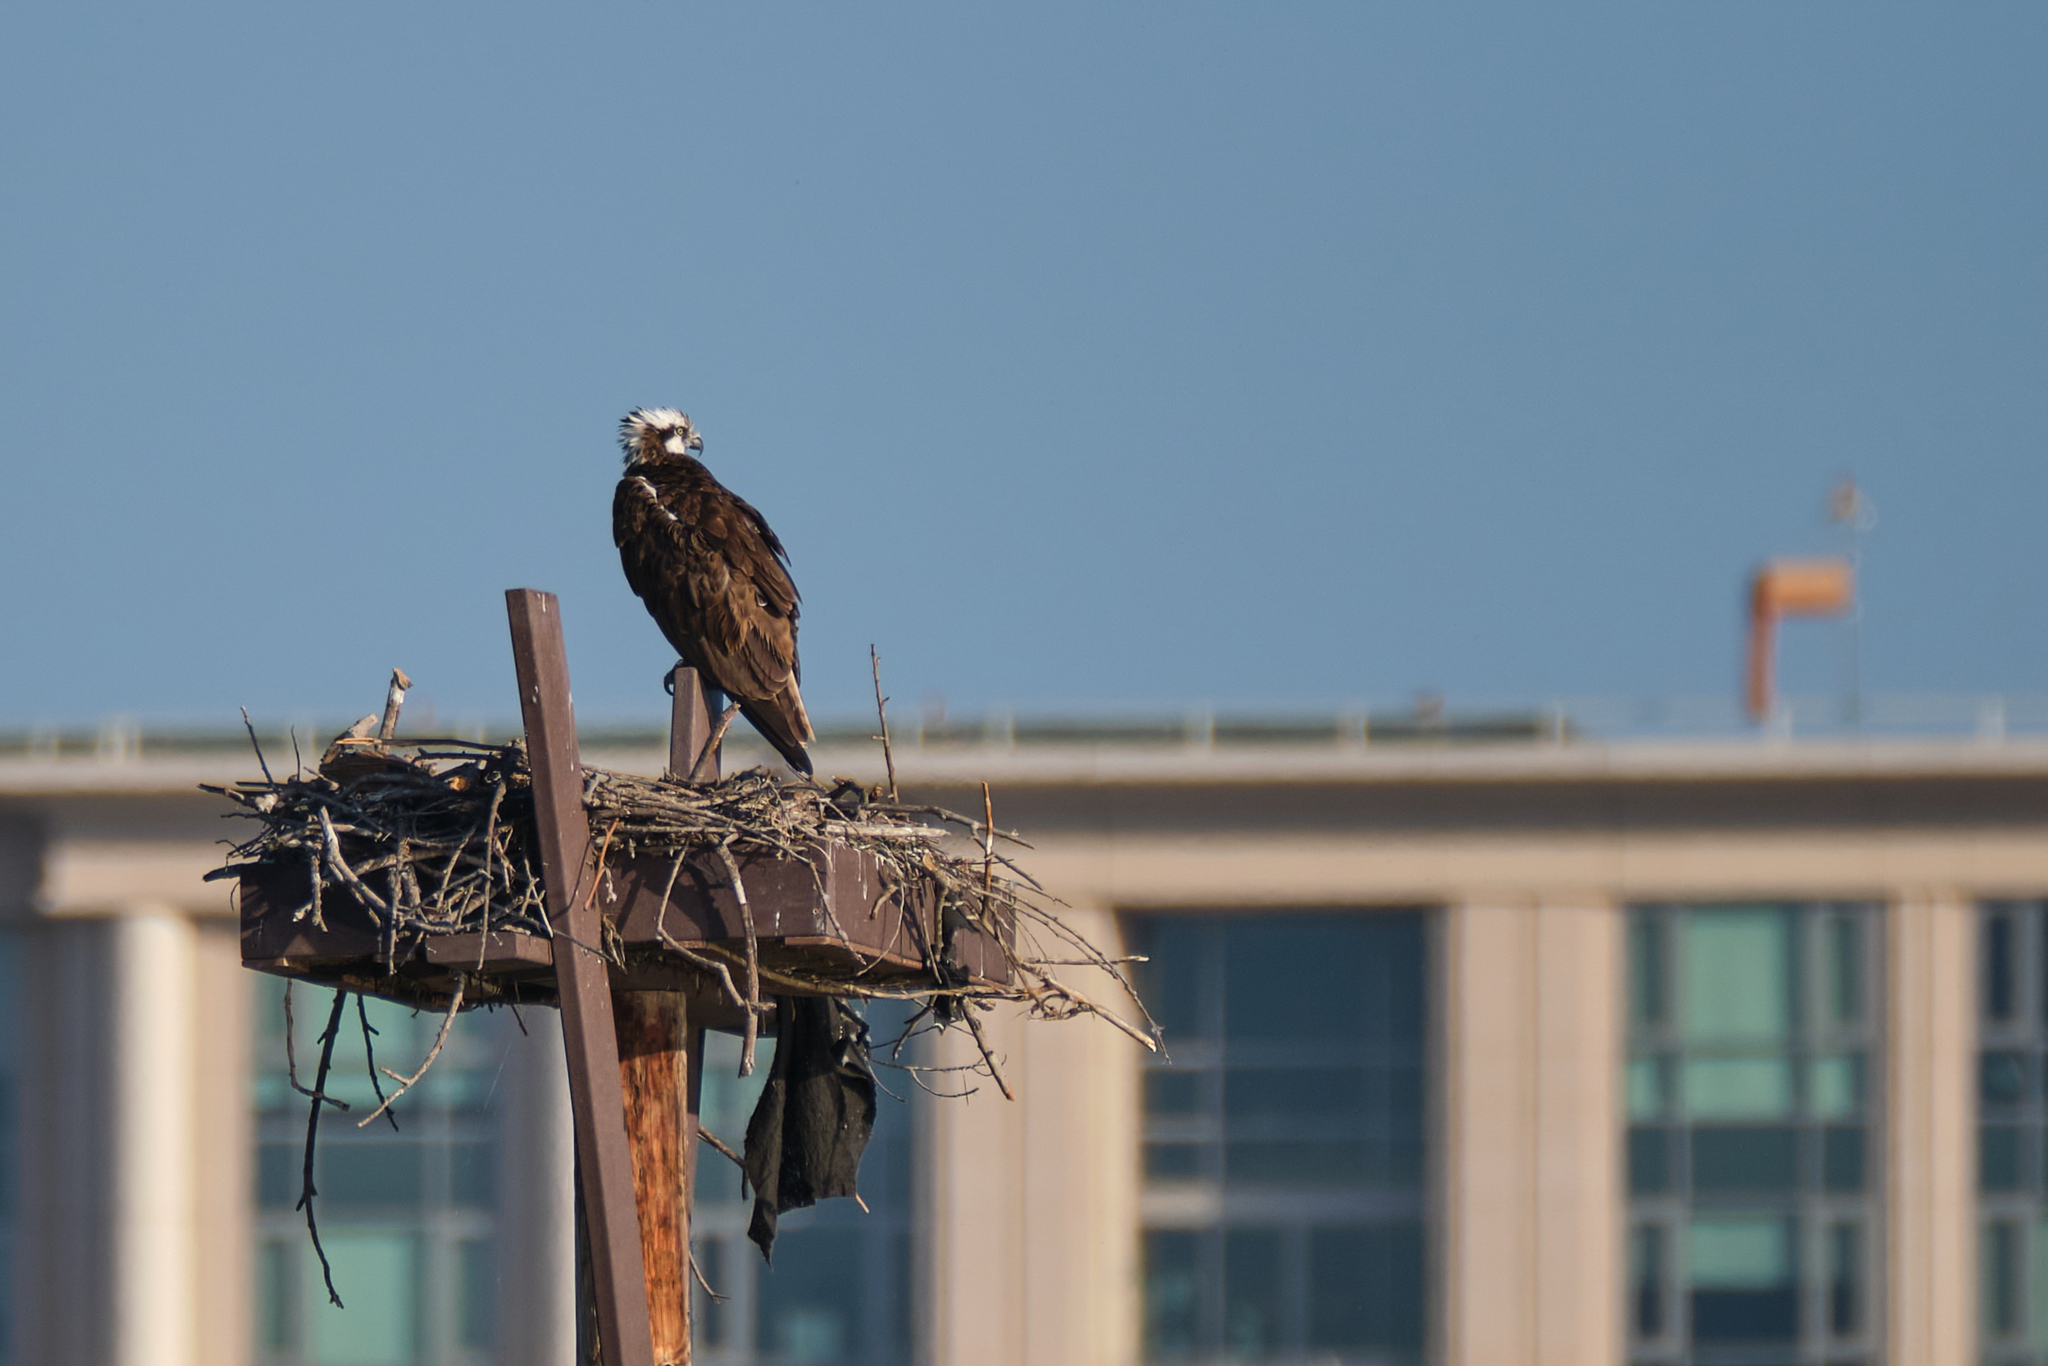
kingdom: Animalia
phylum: Chordata
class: Aves
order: Accipitriformes
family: Pandionidae
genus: Pandion
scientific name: Pandion haliaetus
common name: Osprey
